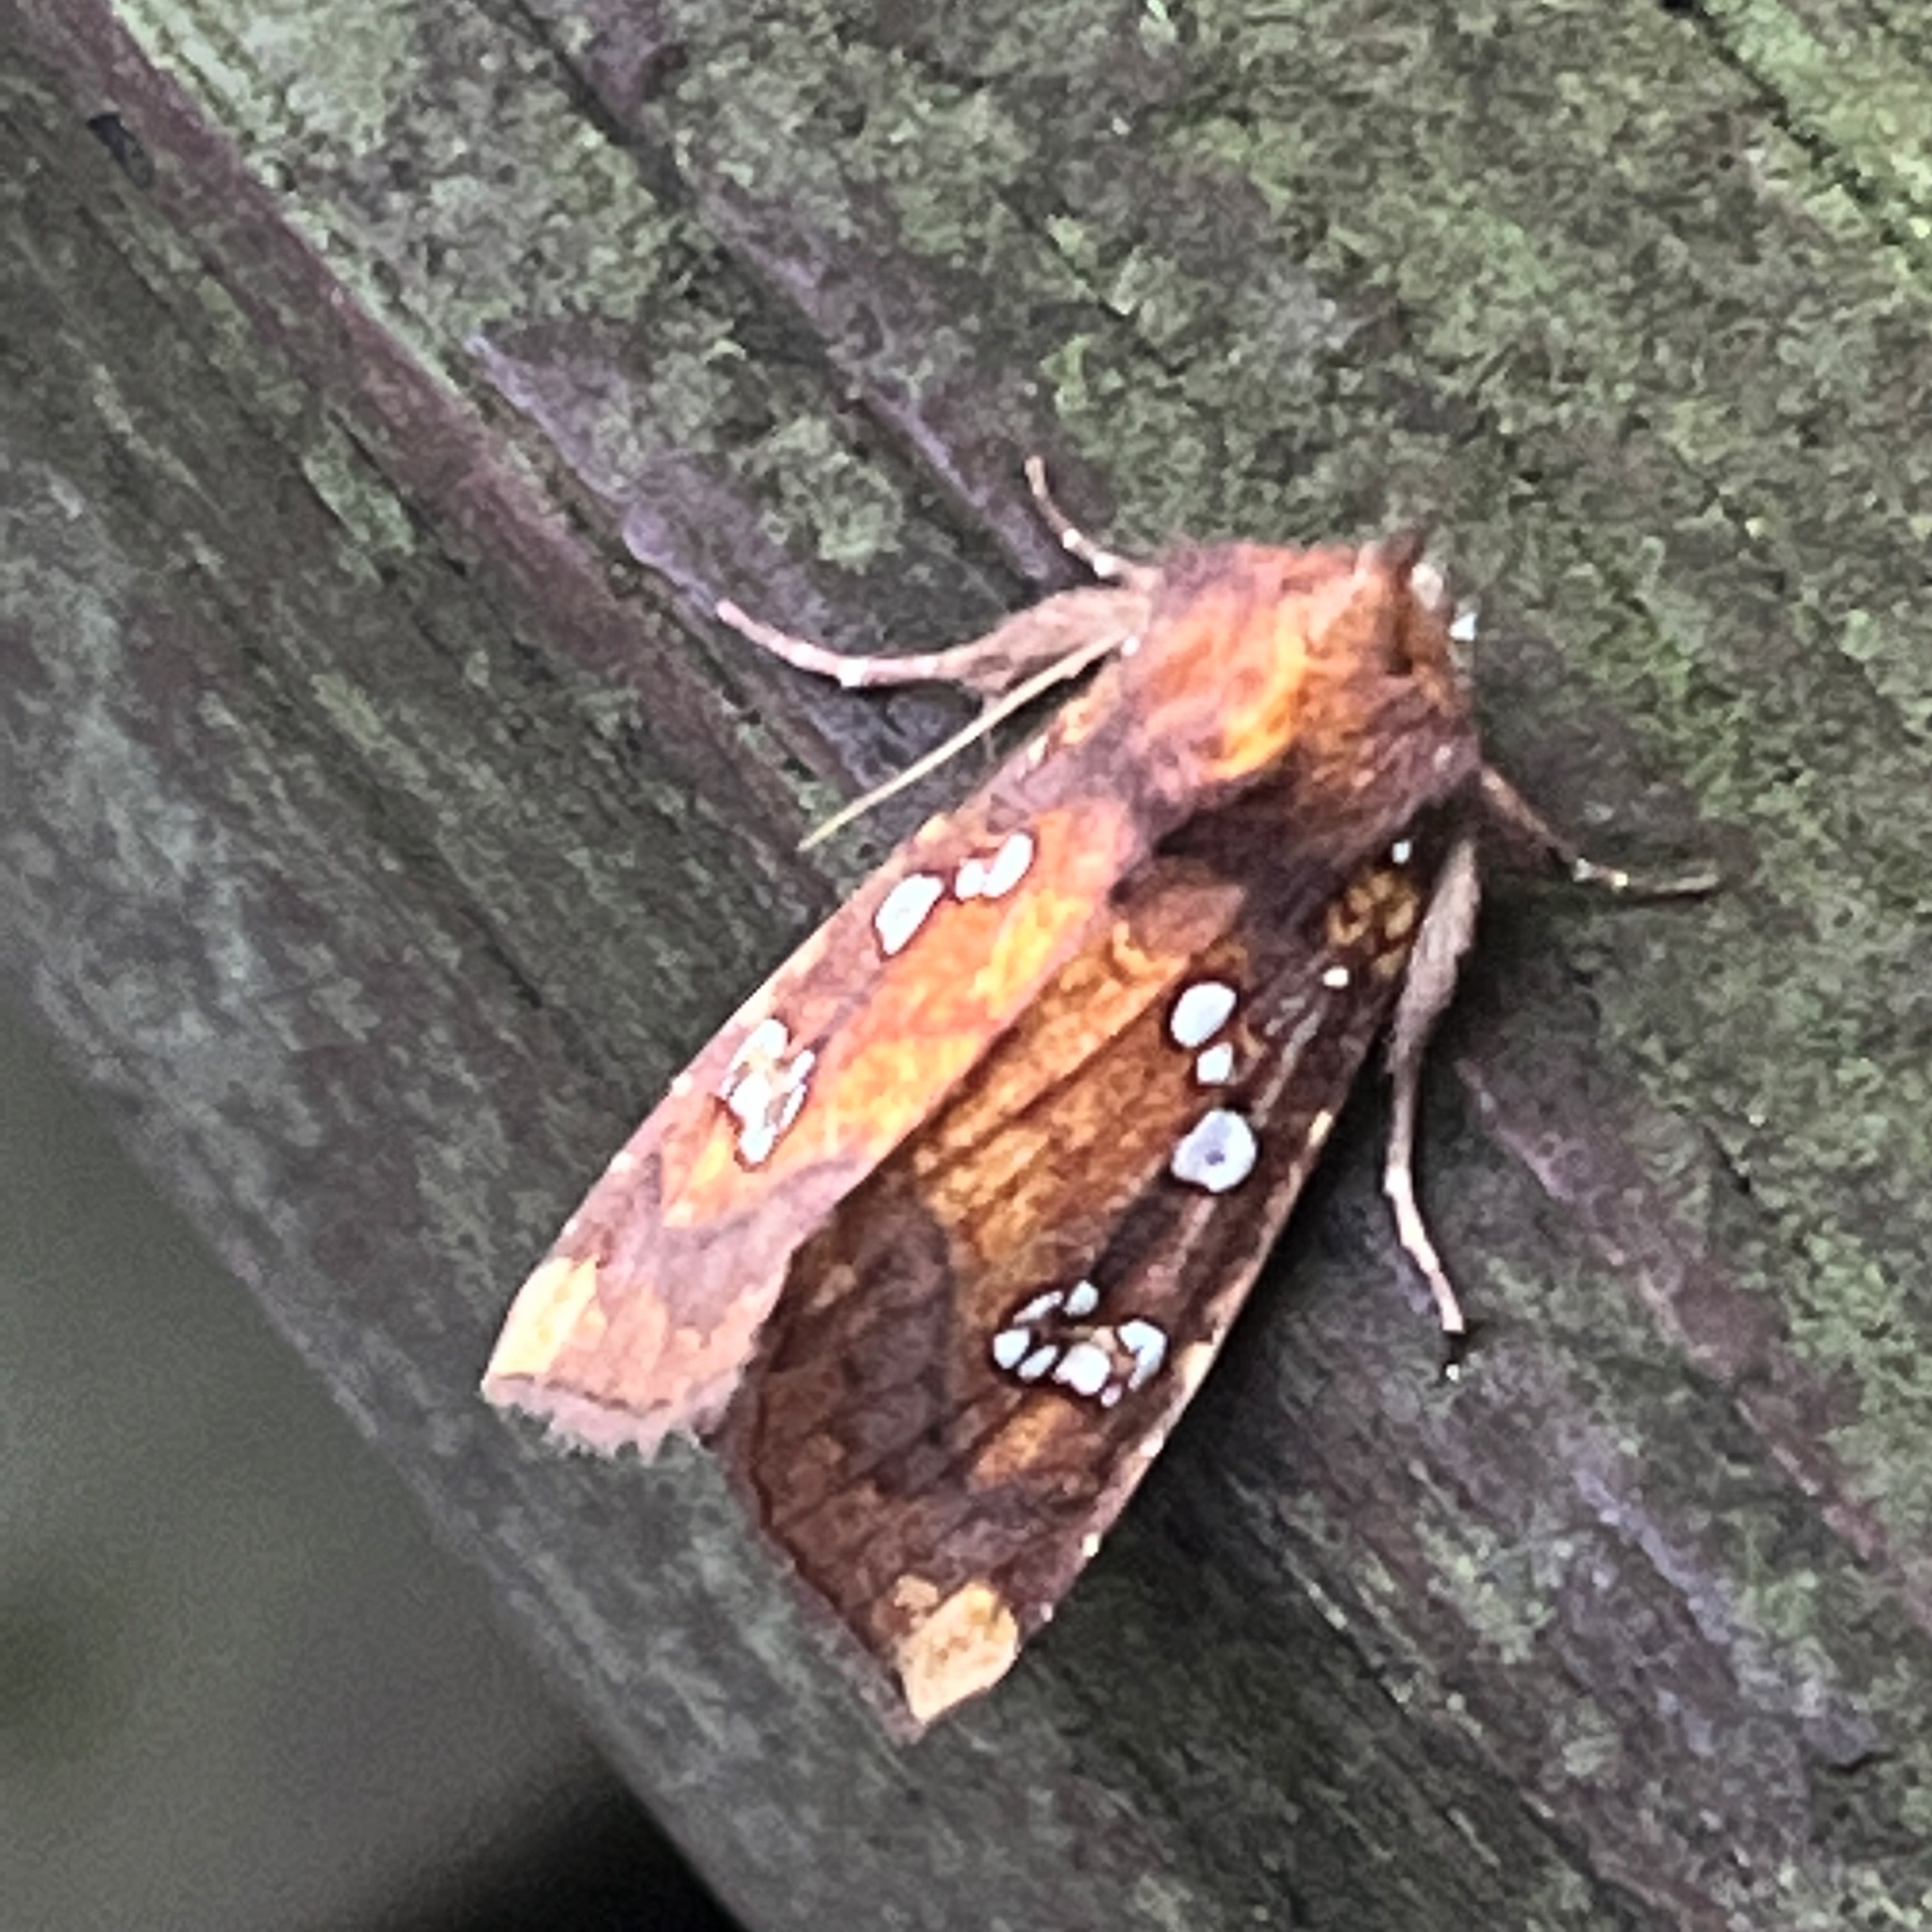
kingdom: Animalia
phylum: Arthropoda
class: Insecta
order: Lepidoptera
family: Noctuidae
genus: Papaipema
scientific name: Papaipema baptisiae
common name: Wild indigo borer moth
